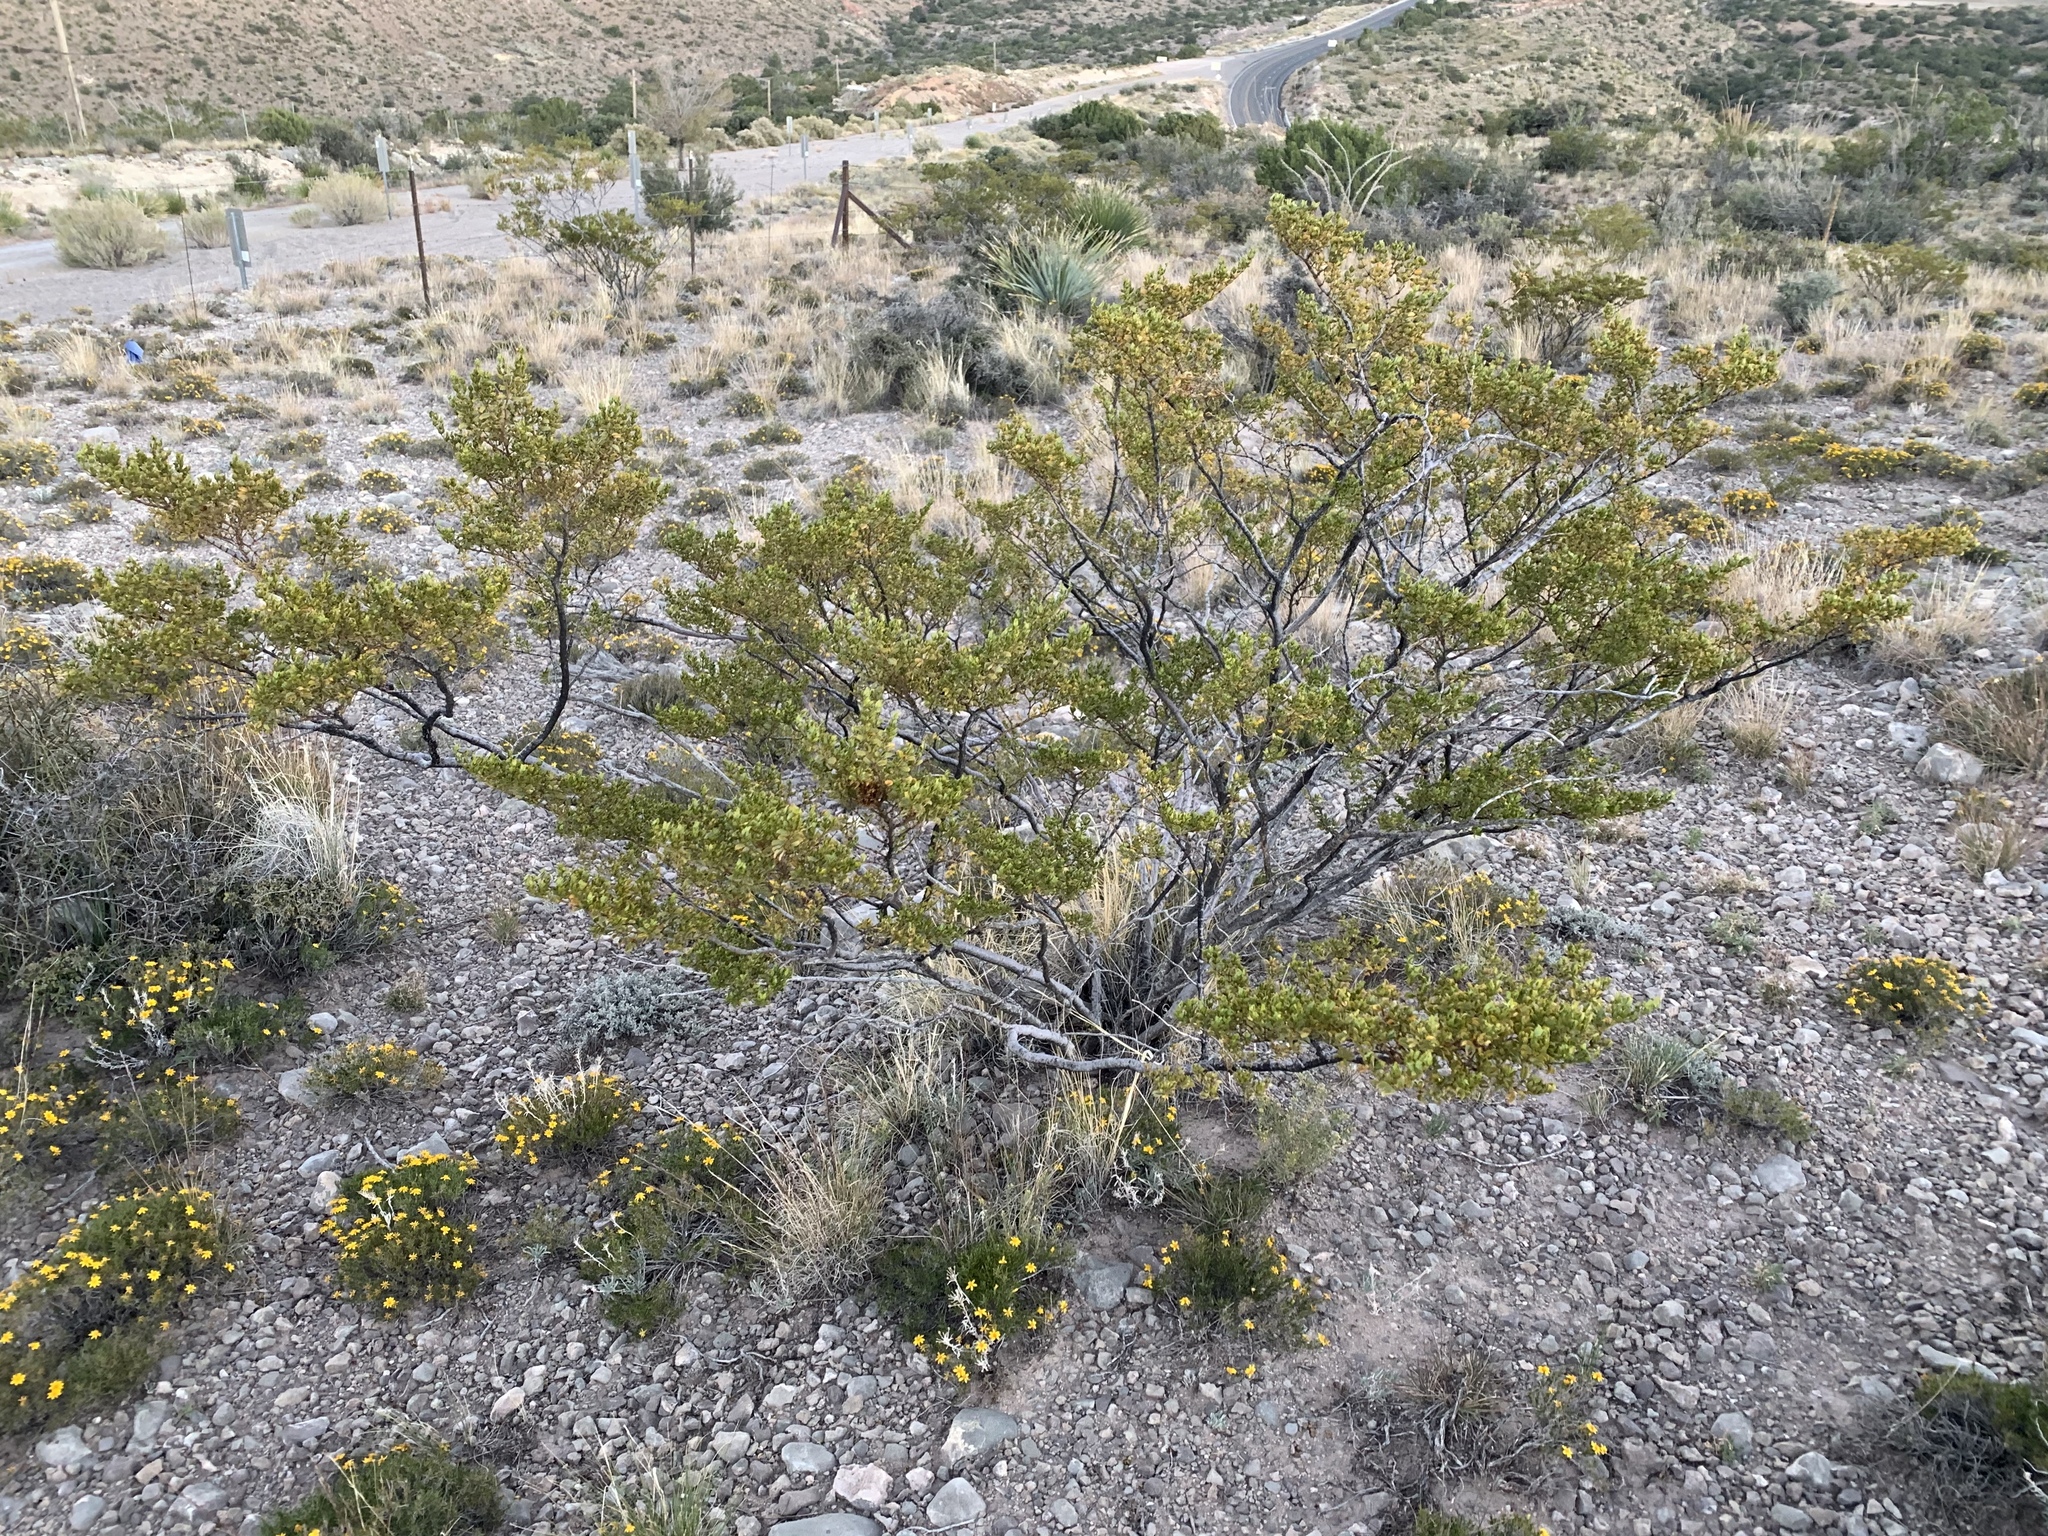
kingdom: Plantae
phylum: Tracheophyta
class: Magnoliopsida
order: Zygophyllales
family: Zygophyllaceae
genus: Larrea
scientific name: Larrea tridentata
